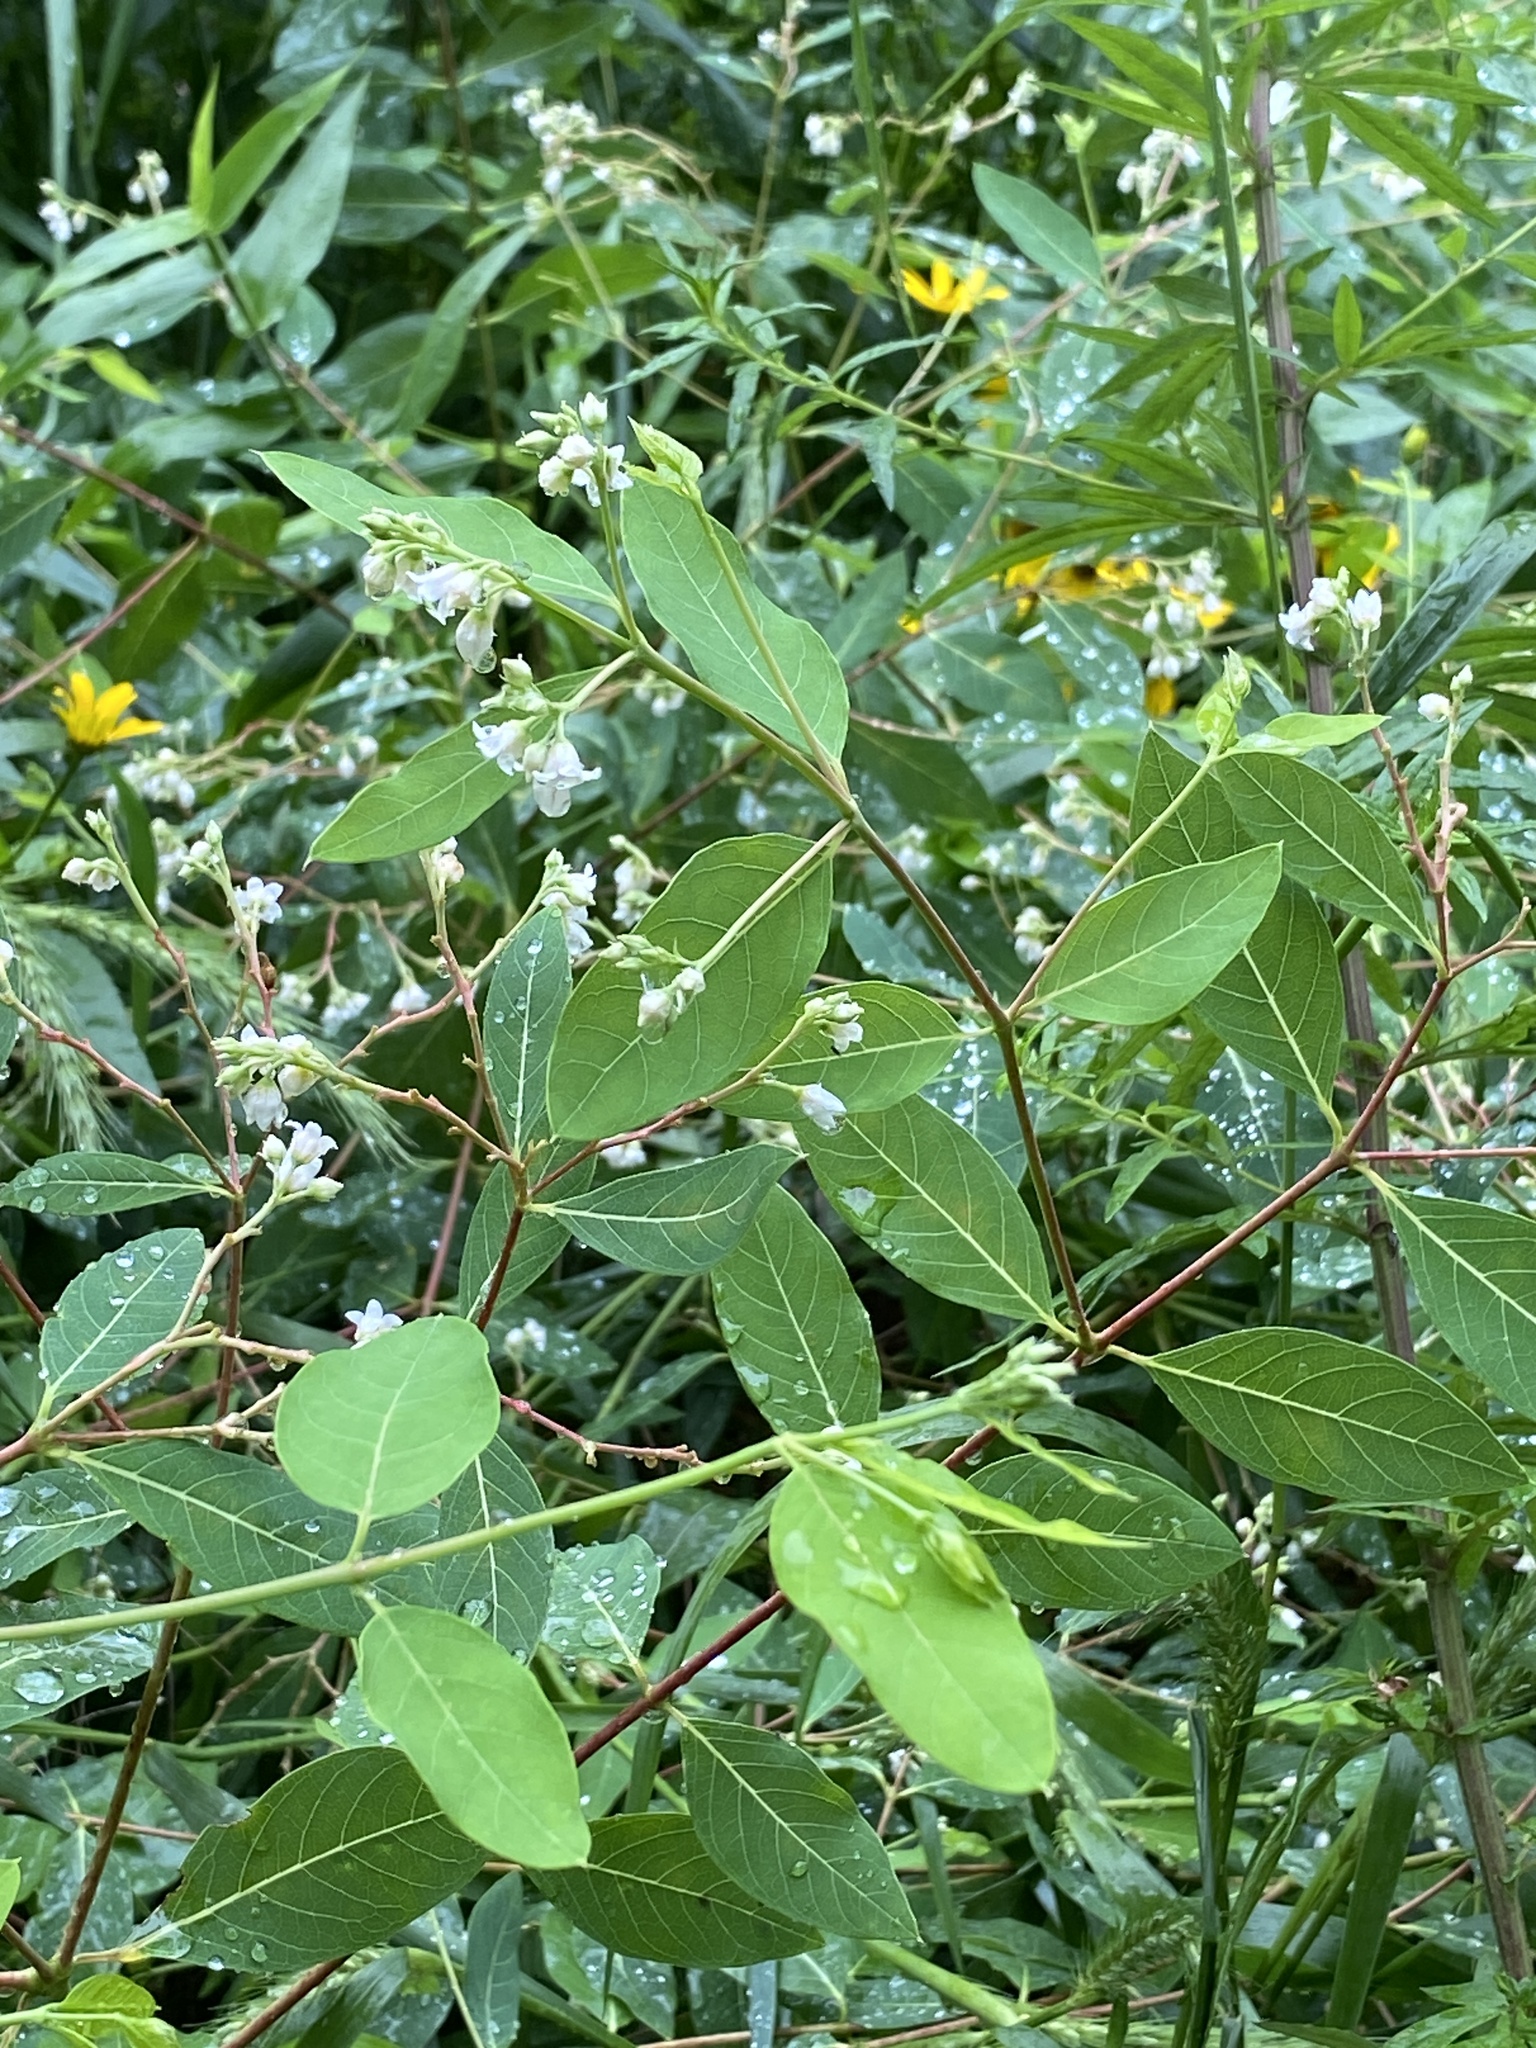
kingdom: Plantae
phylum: Tracheophyta
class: Magnoliopsida
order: Gentianales
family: Apocynaceae
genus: Apocynum
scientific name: Apocynum androsaemifolium
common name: Spreading dogbane
